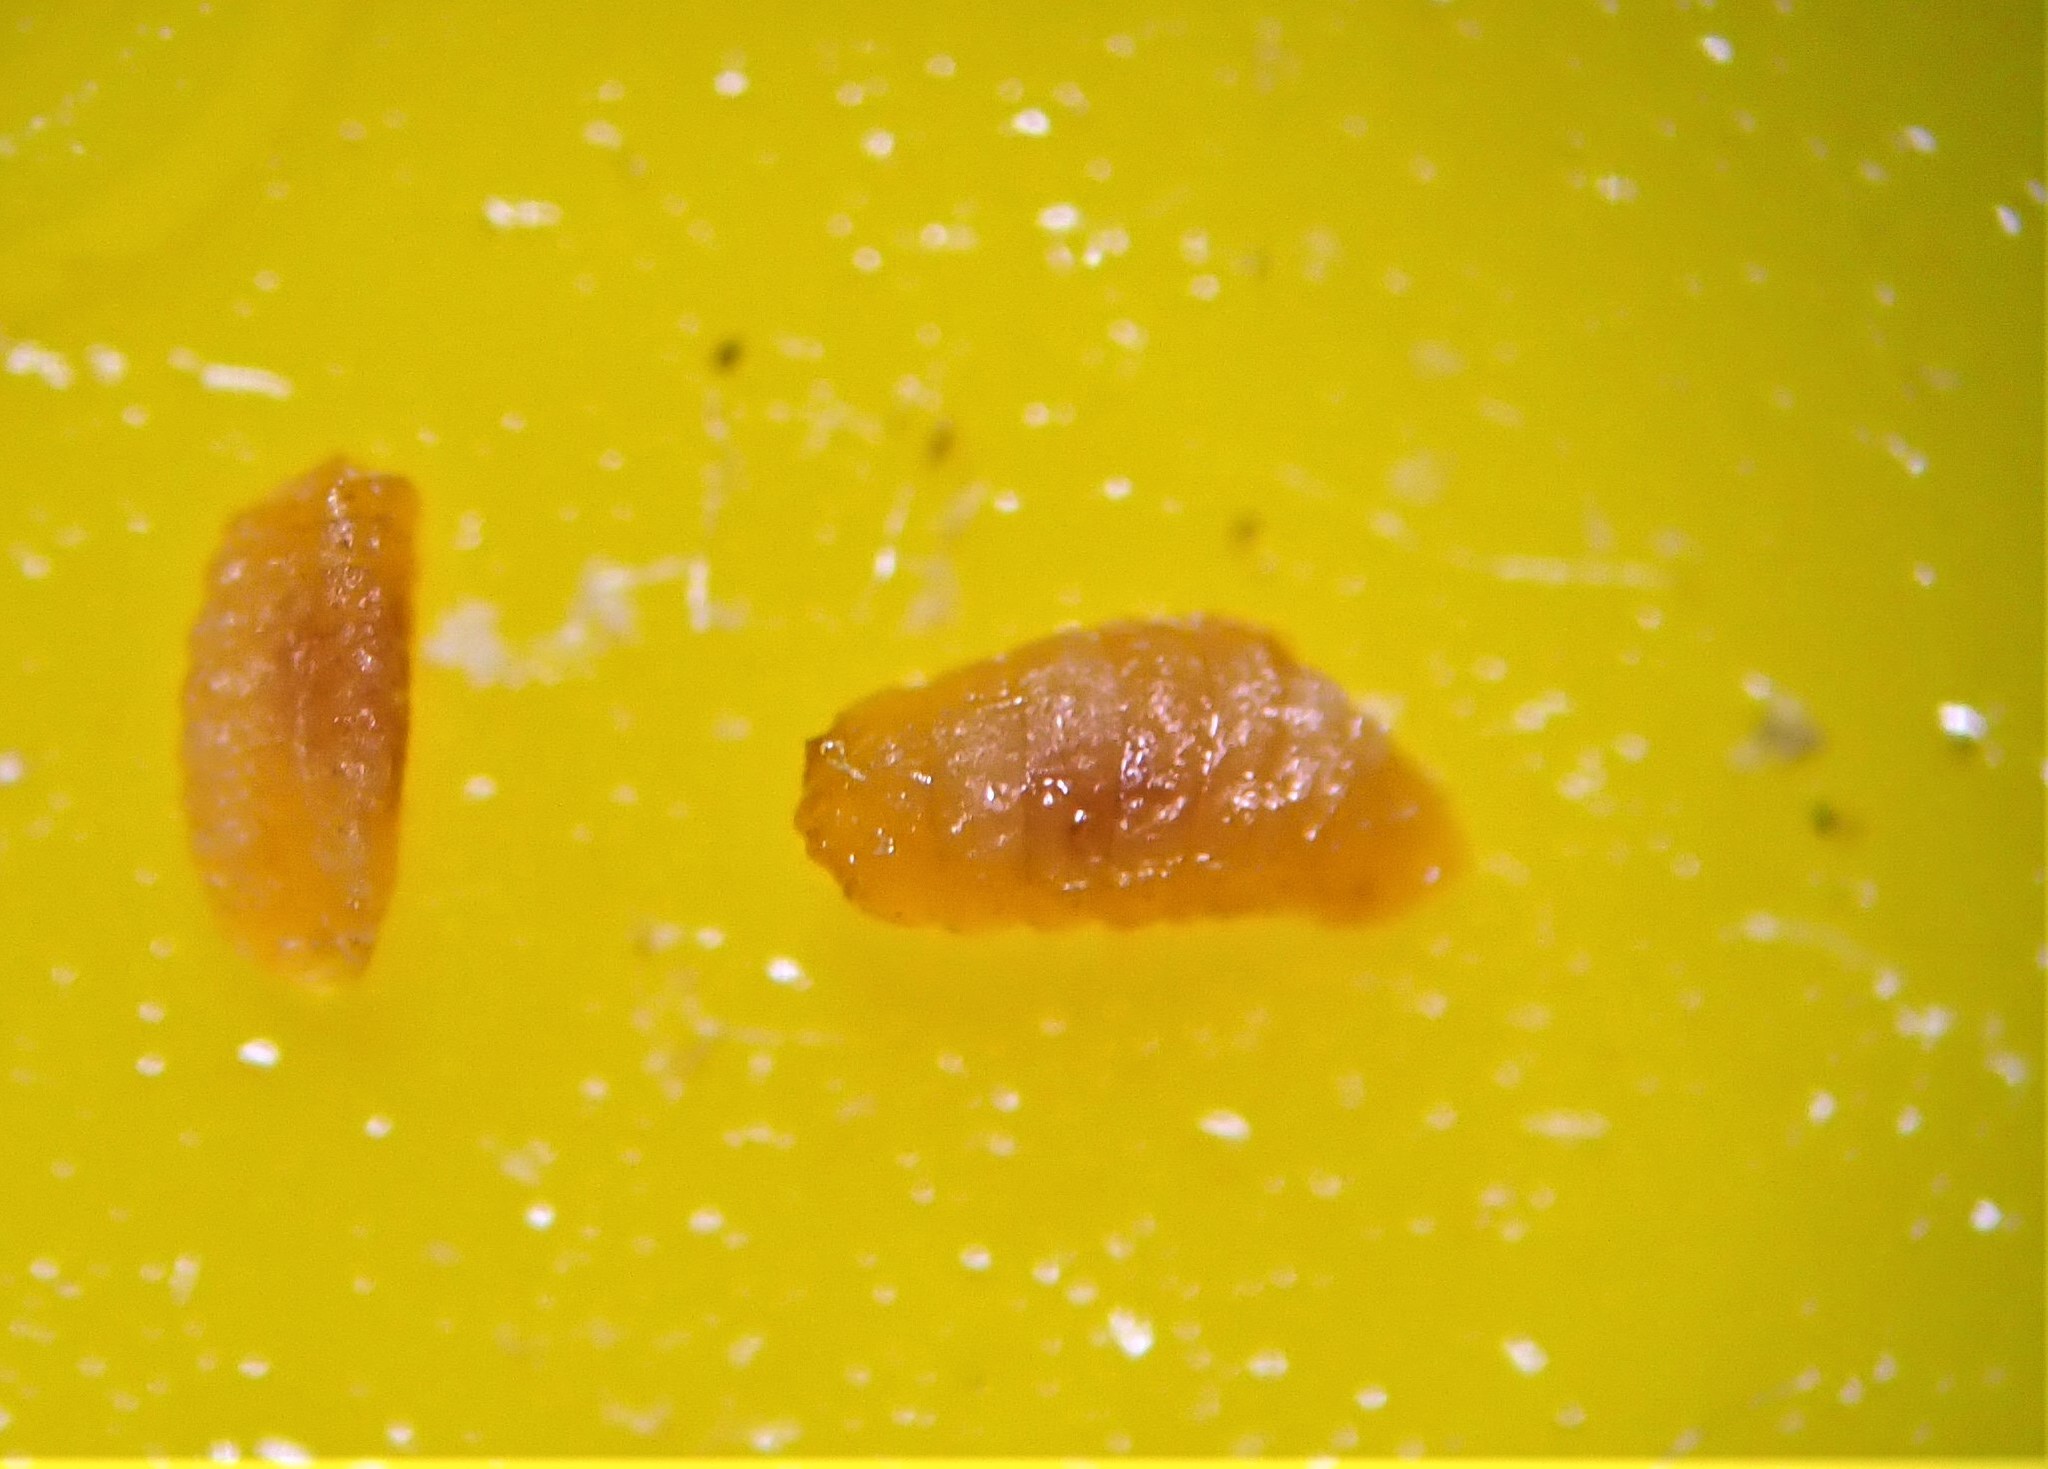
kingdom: Animalia
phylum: Arthropoda
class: Insecta
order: Diptera
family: Cecidomyiidae
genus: Oligotrophus
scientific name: Oligotrophus
